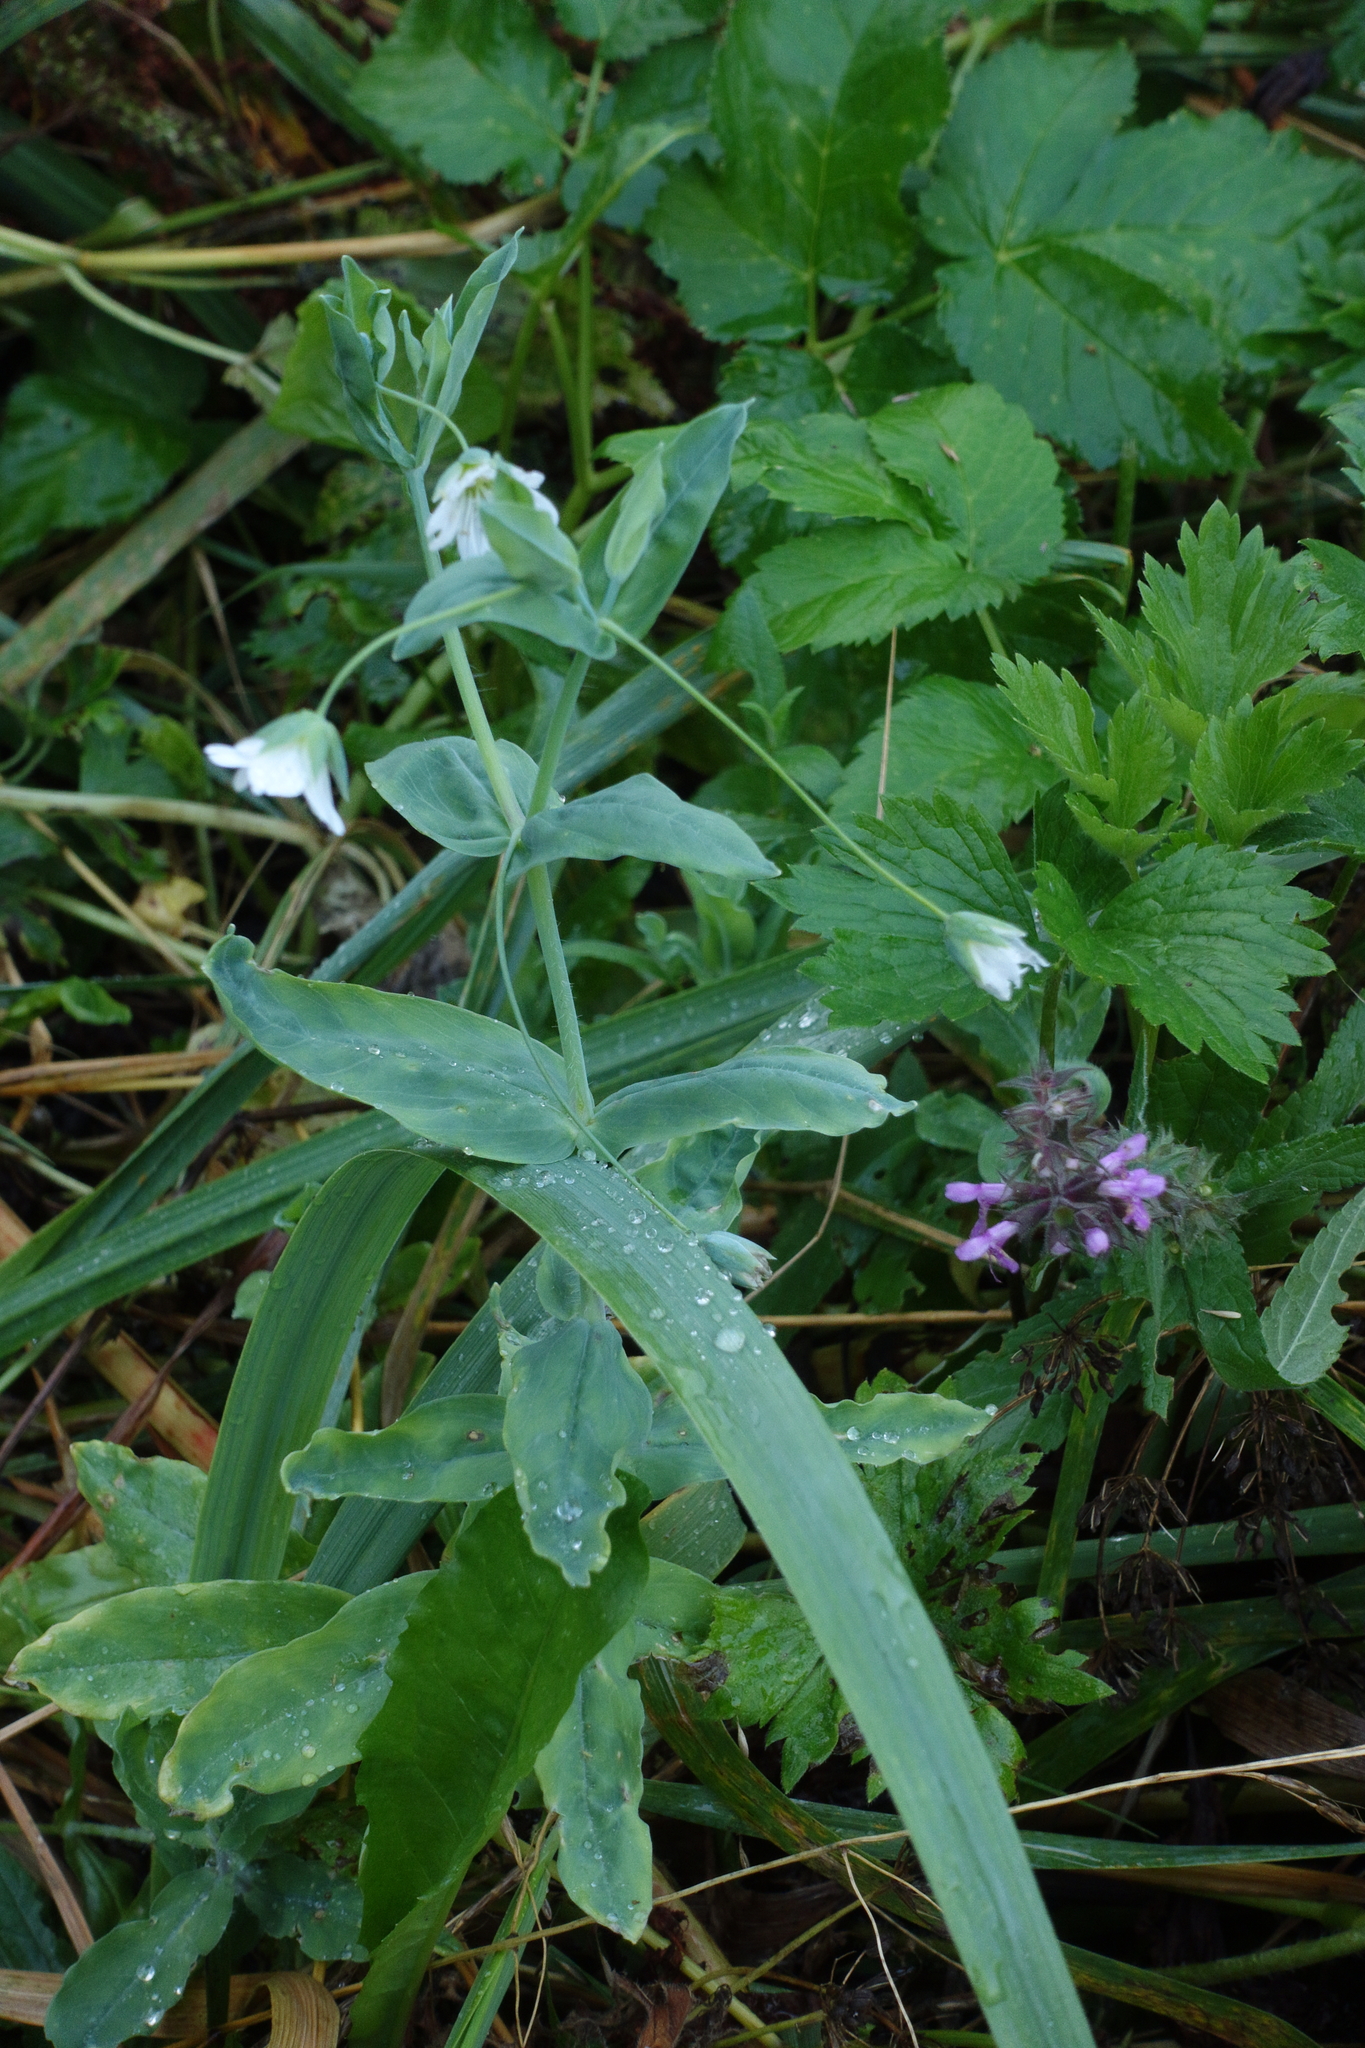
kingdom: Plantae
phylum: Tracheophyta
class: Magnoliopsida
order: Caryophyllales
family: Caryophyllaceae
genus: Cerastium
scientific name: Cerastium davuricum
